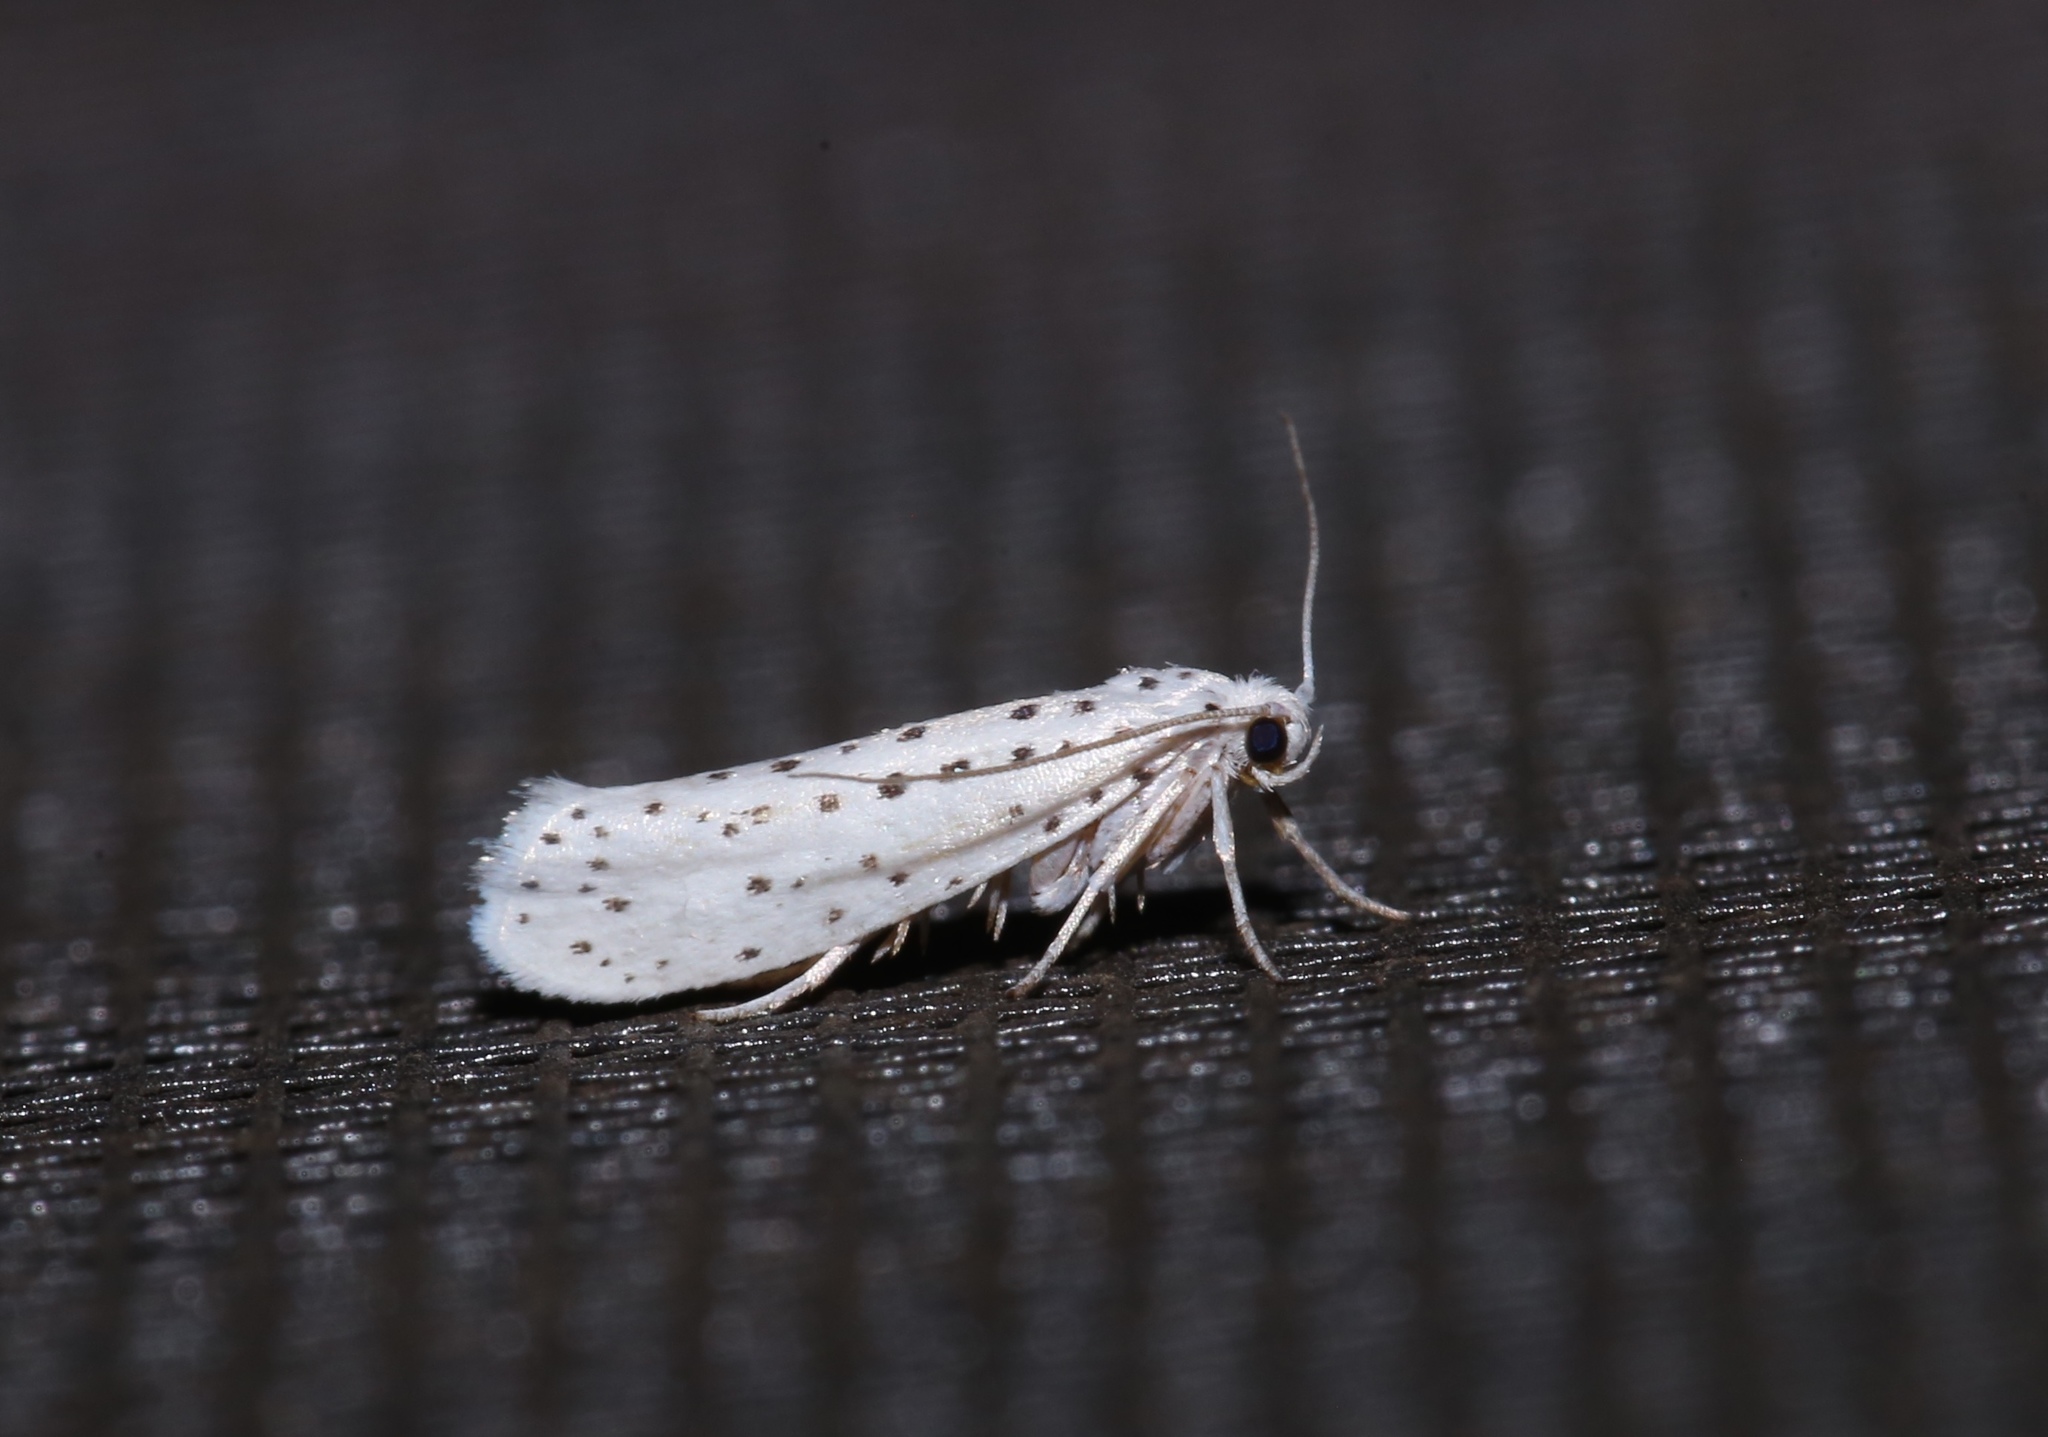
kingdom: Animalia
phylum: Arthropoda
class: Insecta
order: Lepidoptera
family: Yponomeutidae
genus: Yponomeuta
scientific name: Yponomeuta multipunctella
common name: American ermine moth
